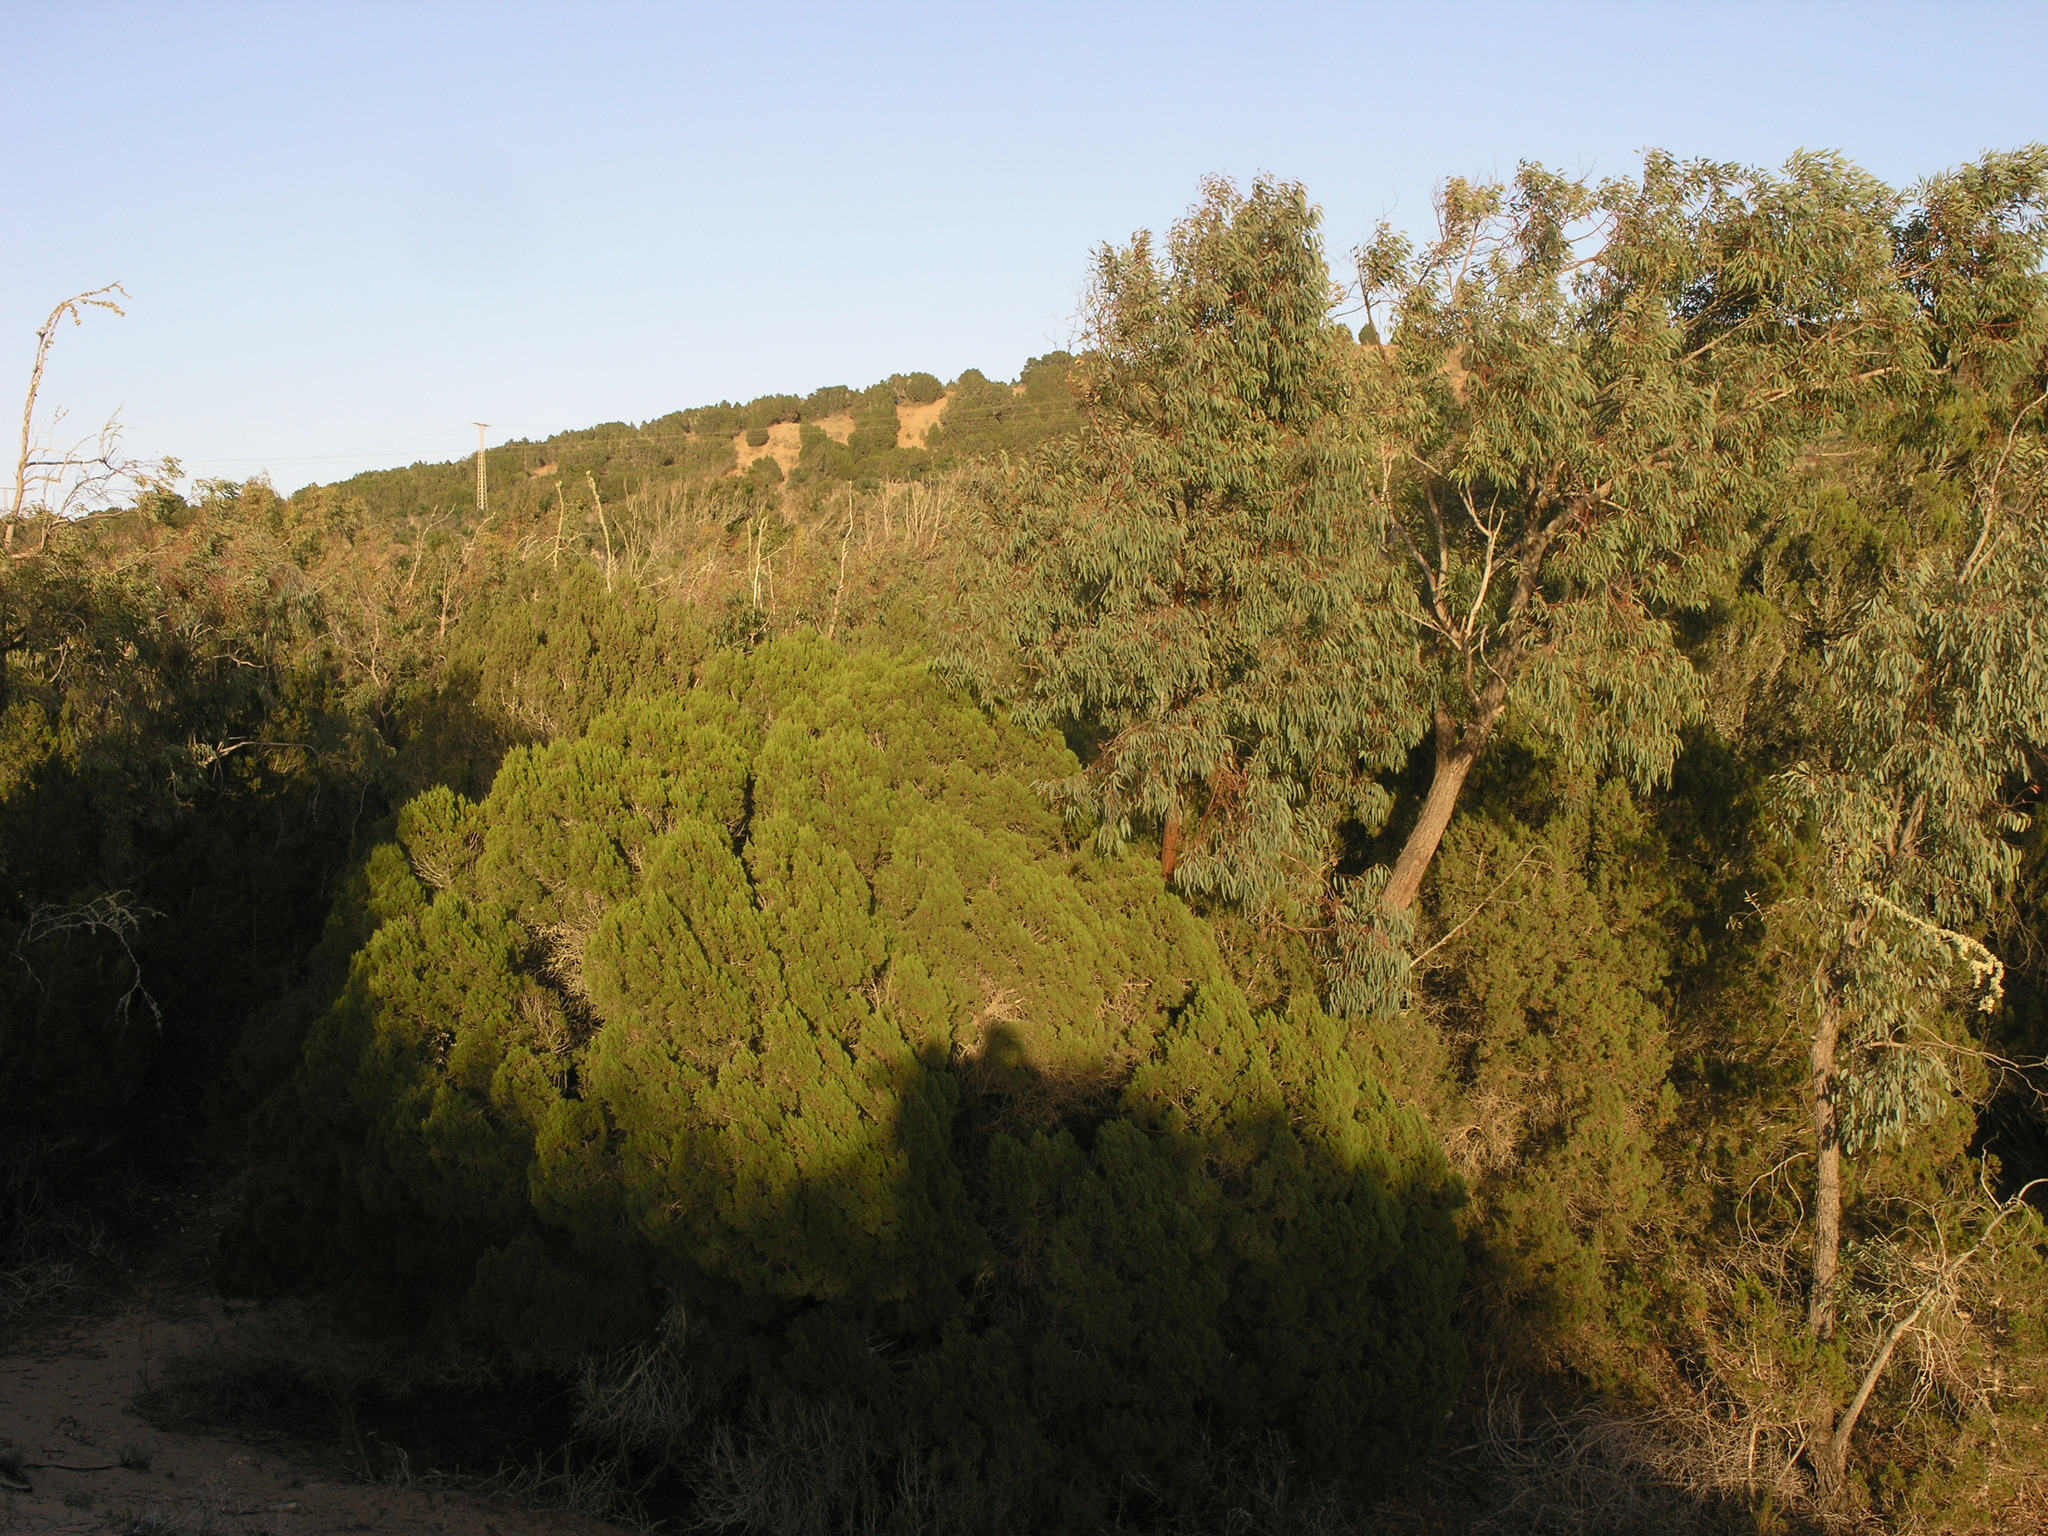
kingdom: Plantae
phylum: Tracheophyta
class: Pinopsida
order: Pinales
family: Cupressaceae
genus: Juniperus
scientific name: Juniperus phoenicea
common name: Phoenician juniper
